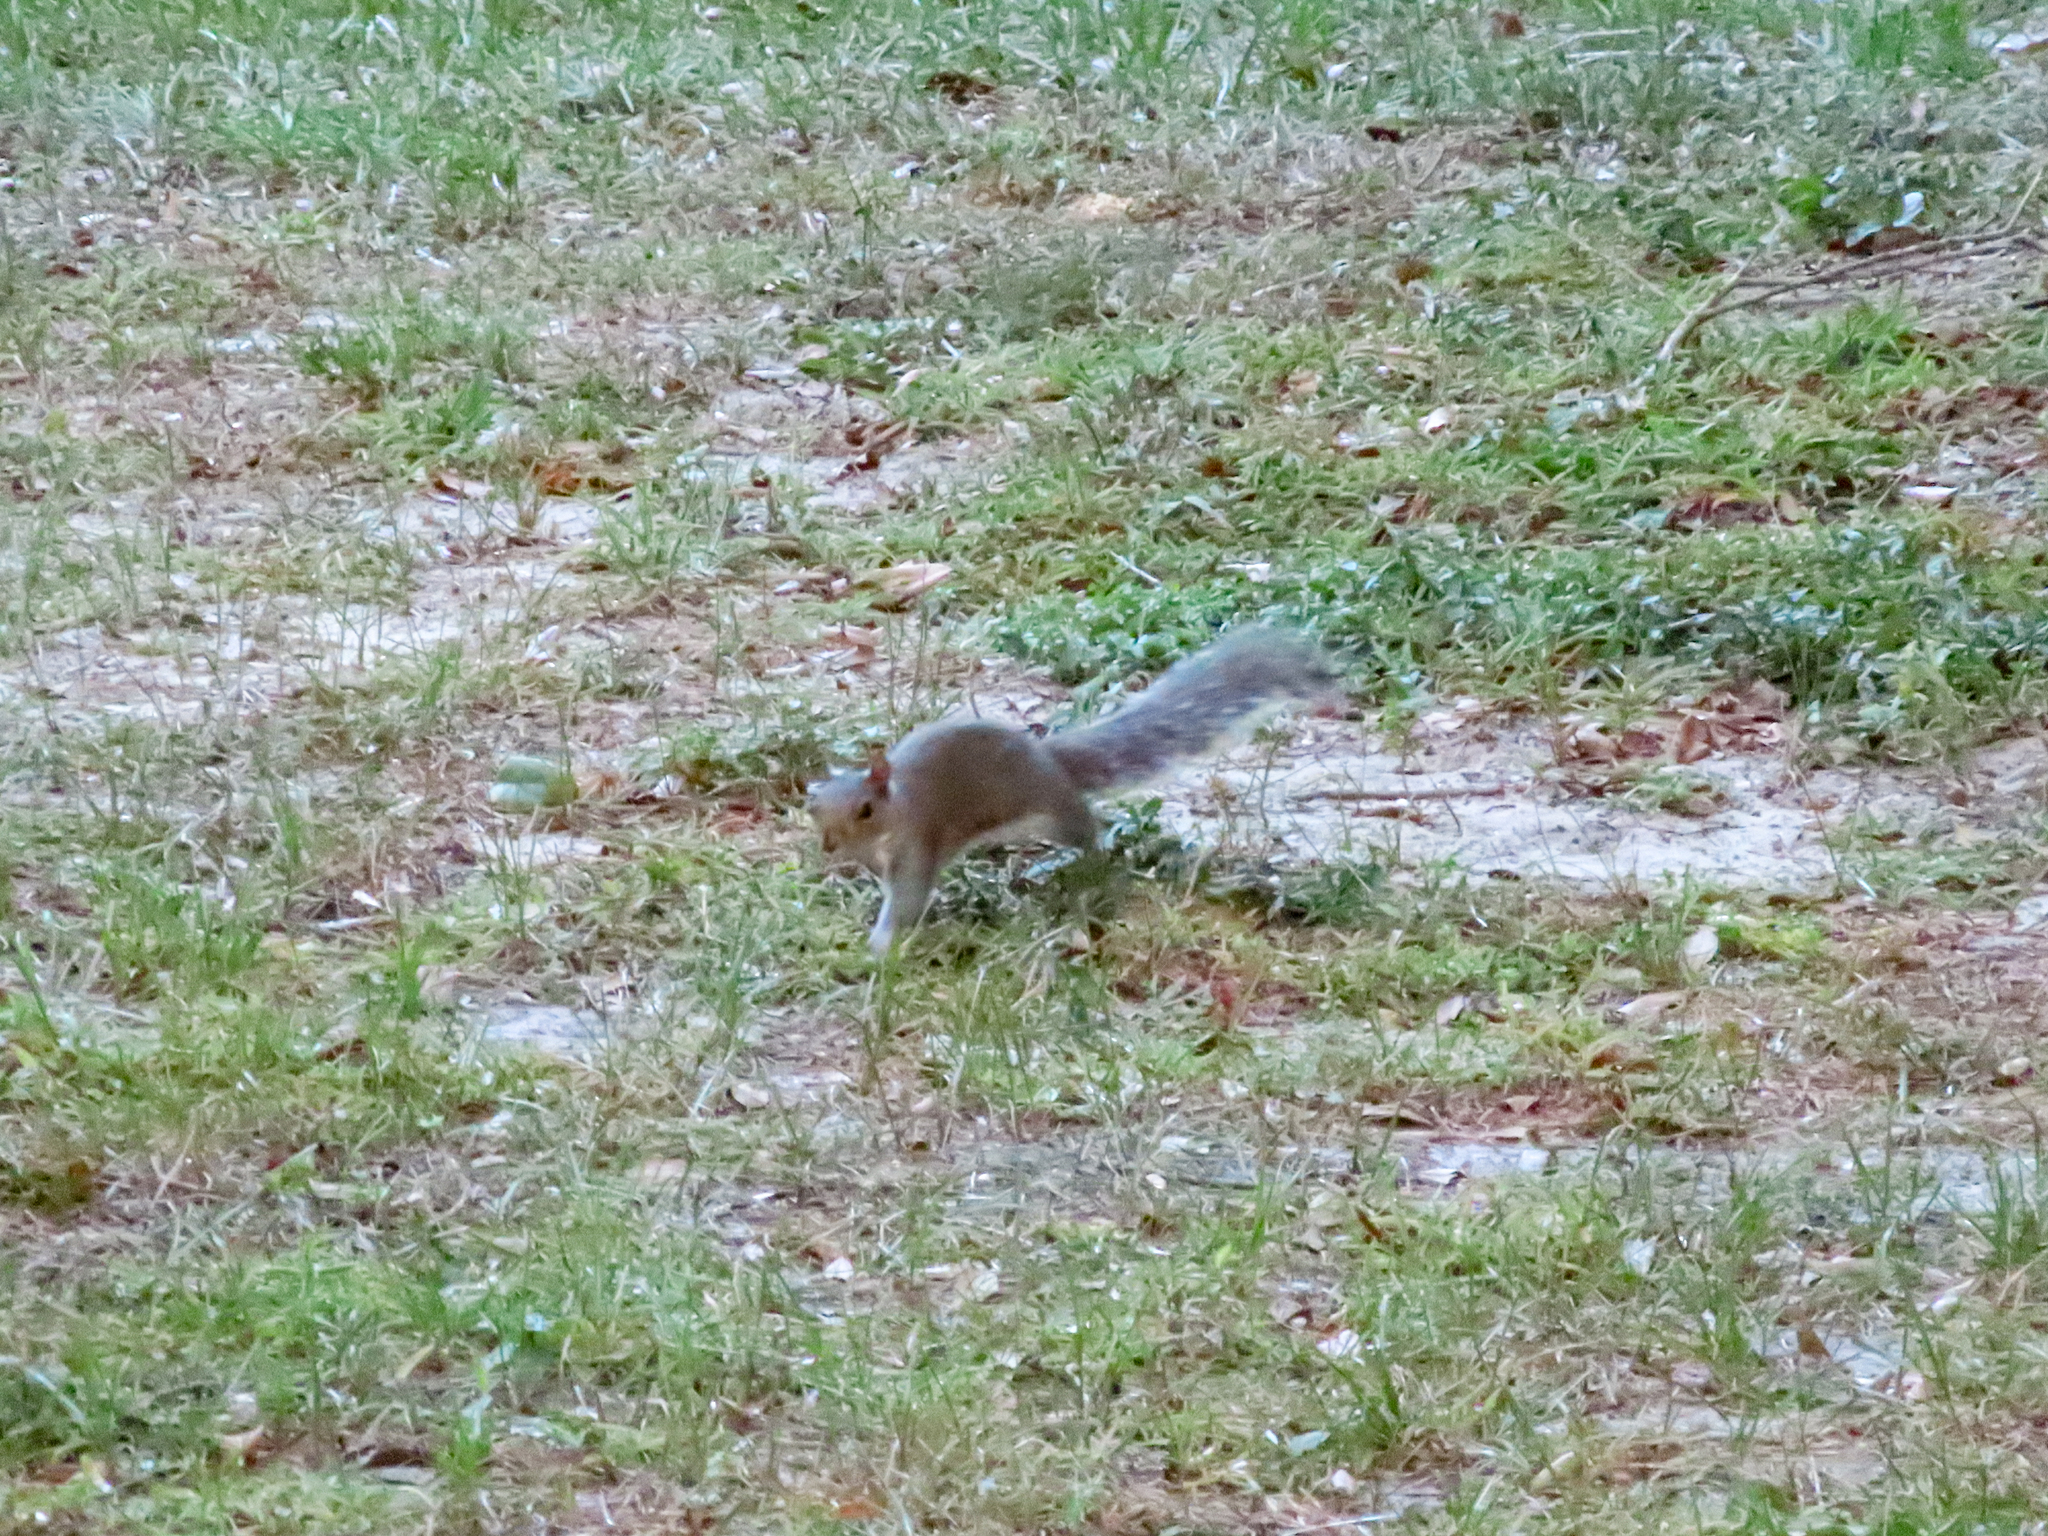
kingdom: Animalia
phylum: Chordata
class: Mammalia
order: Rodentia
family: Sciuridae
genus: Sciurus
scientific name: Sciurus carolinensis
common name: Eastern gray squirrel
